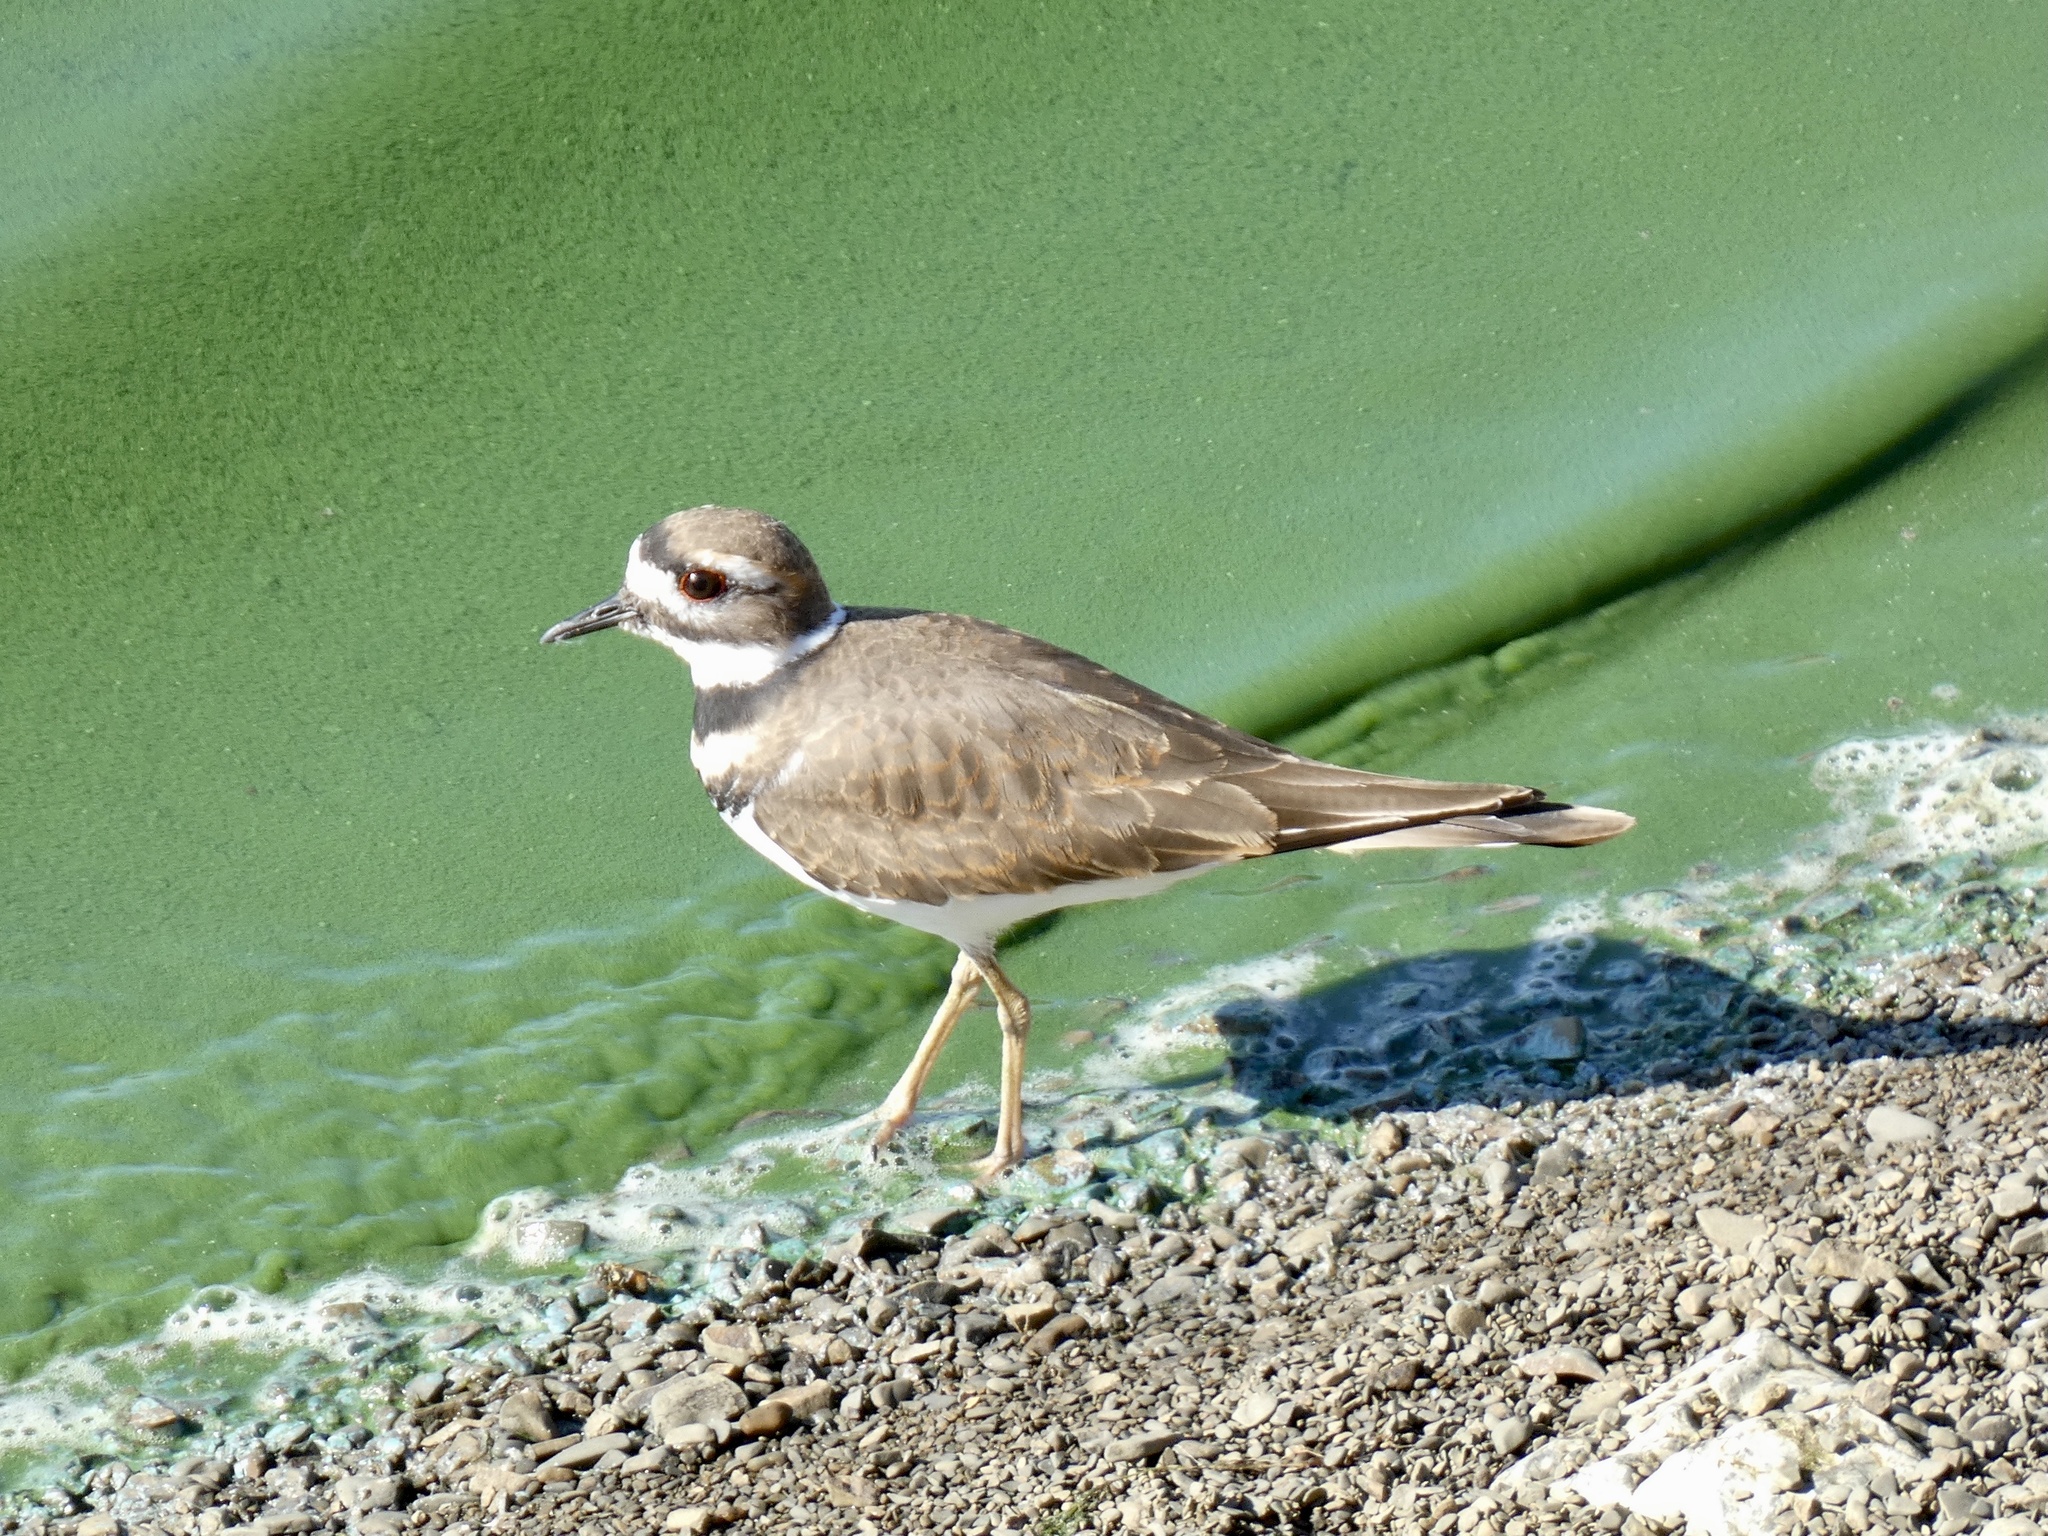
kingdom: Animalia
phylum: Chordata
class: Aves
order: Charadriiformes
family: Charadriidae
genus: Charadrius
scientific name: Charadrius vociferus
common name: Killdeer
